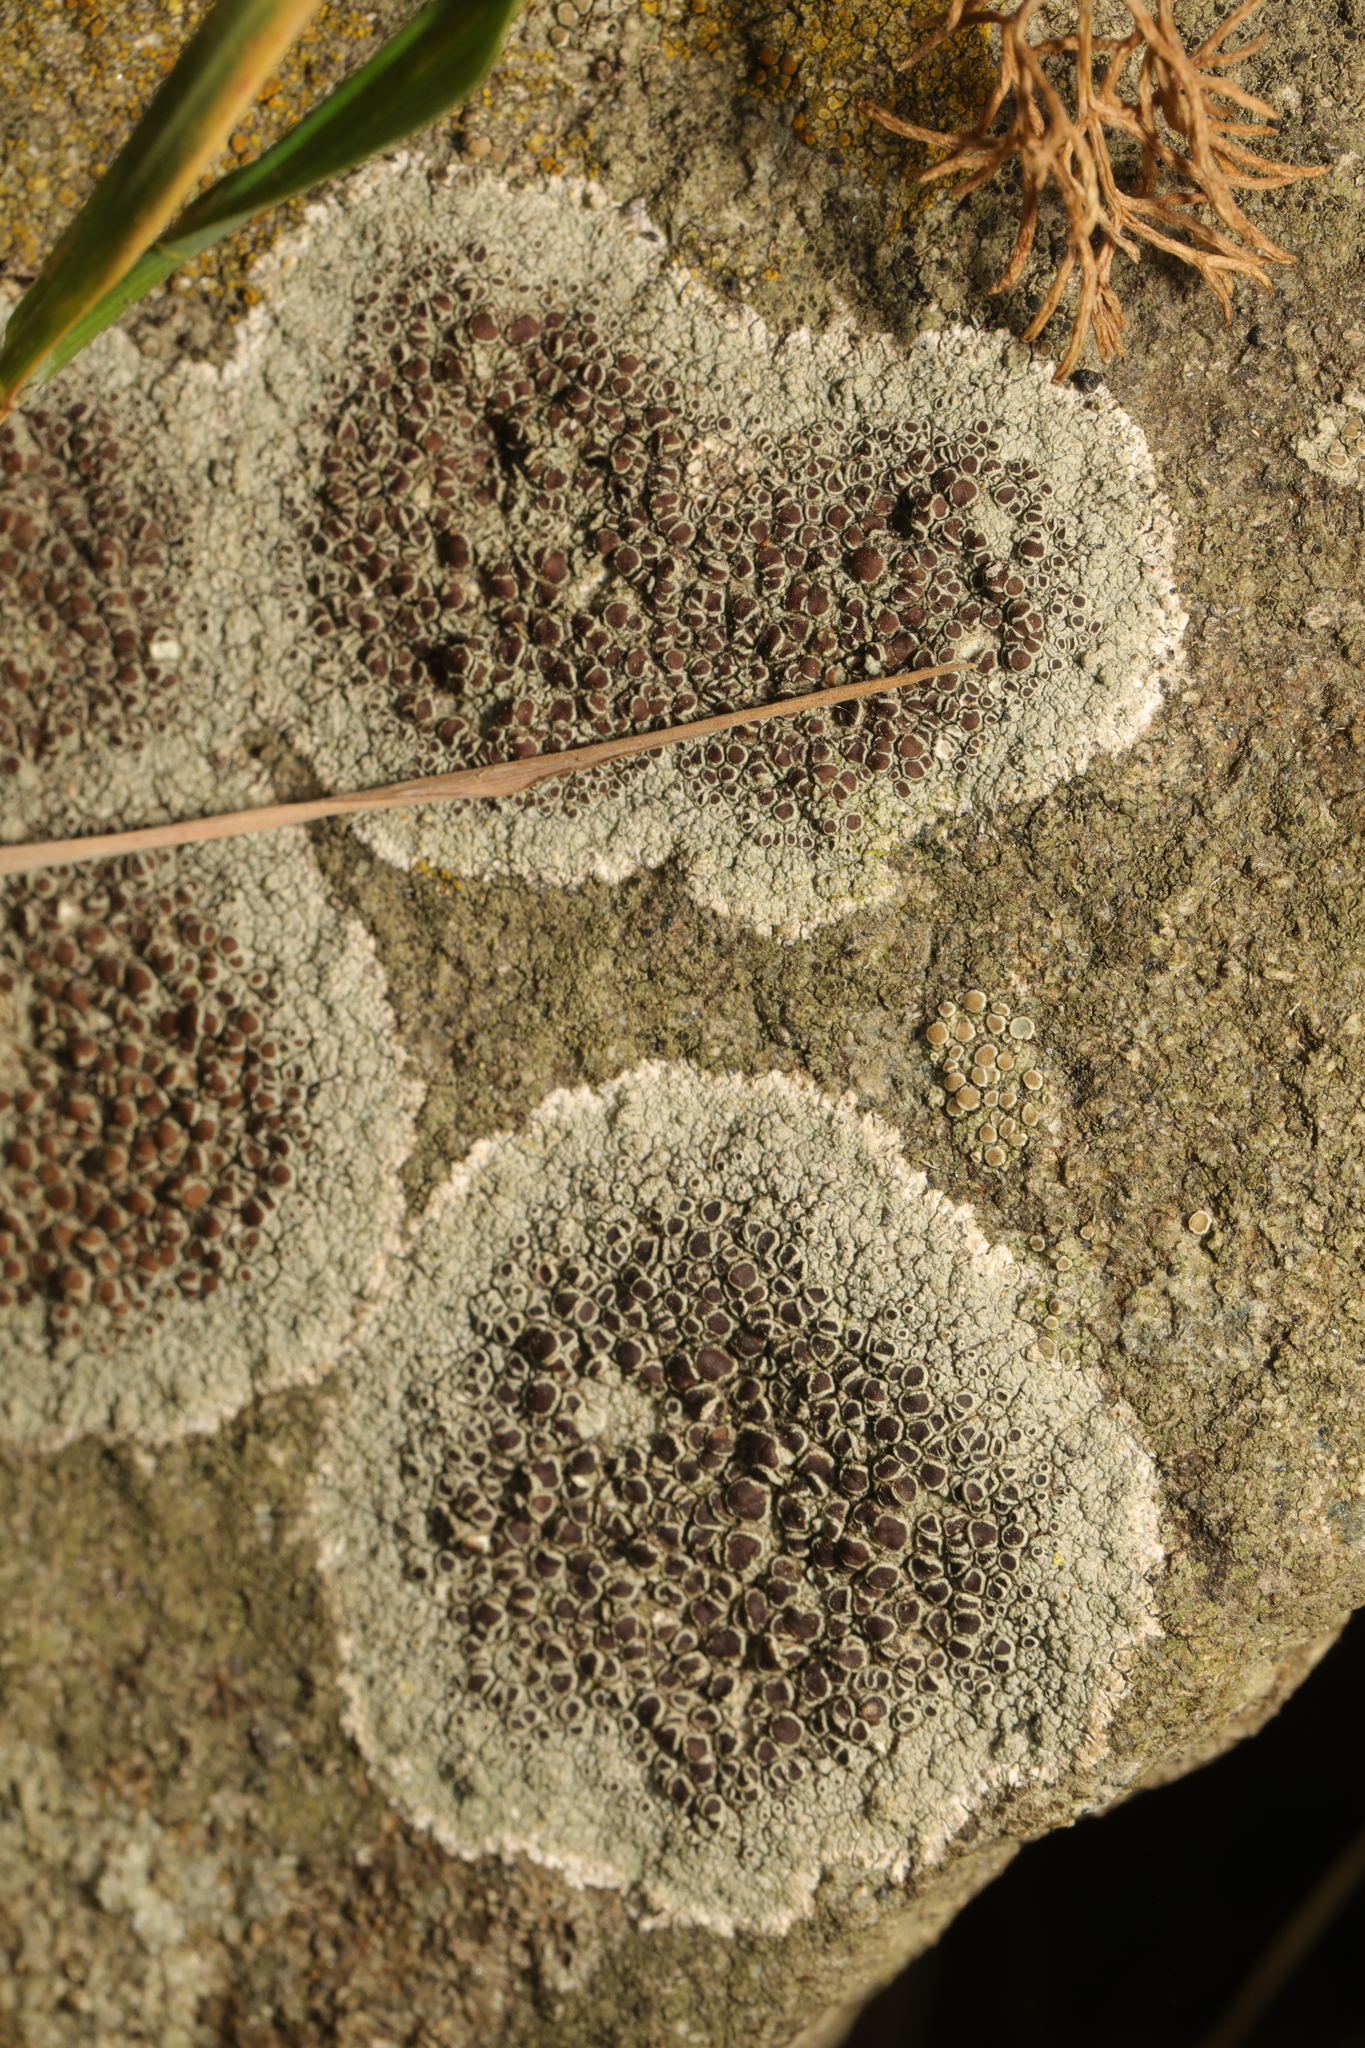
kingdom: Fungi
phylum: Ascomycota
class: Lecanoromycetes
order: Lecanorales
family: Lecanoraceae
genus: Lecanora
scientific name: Lecanora campestris
